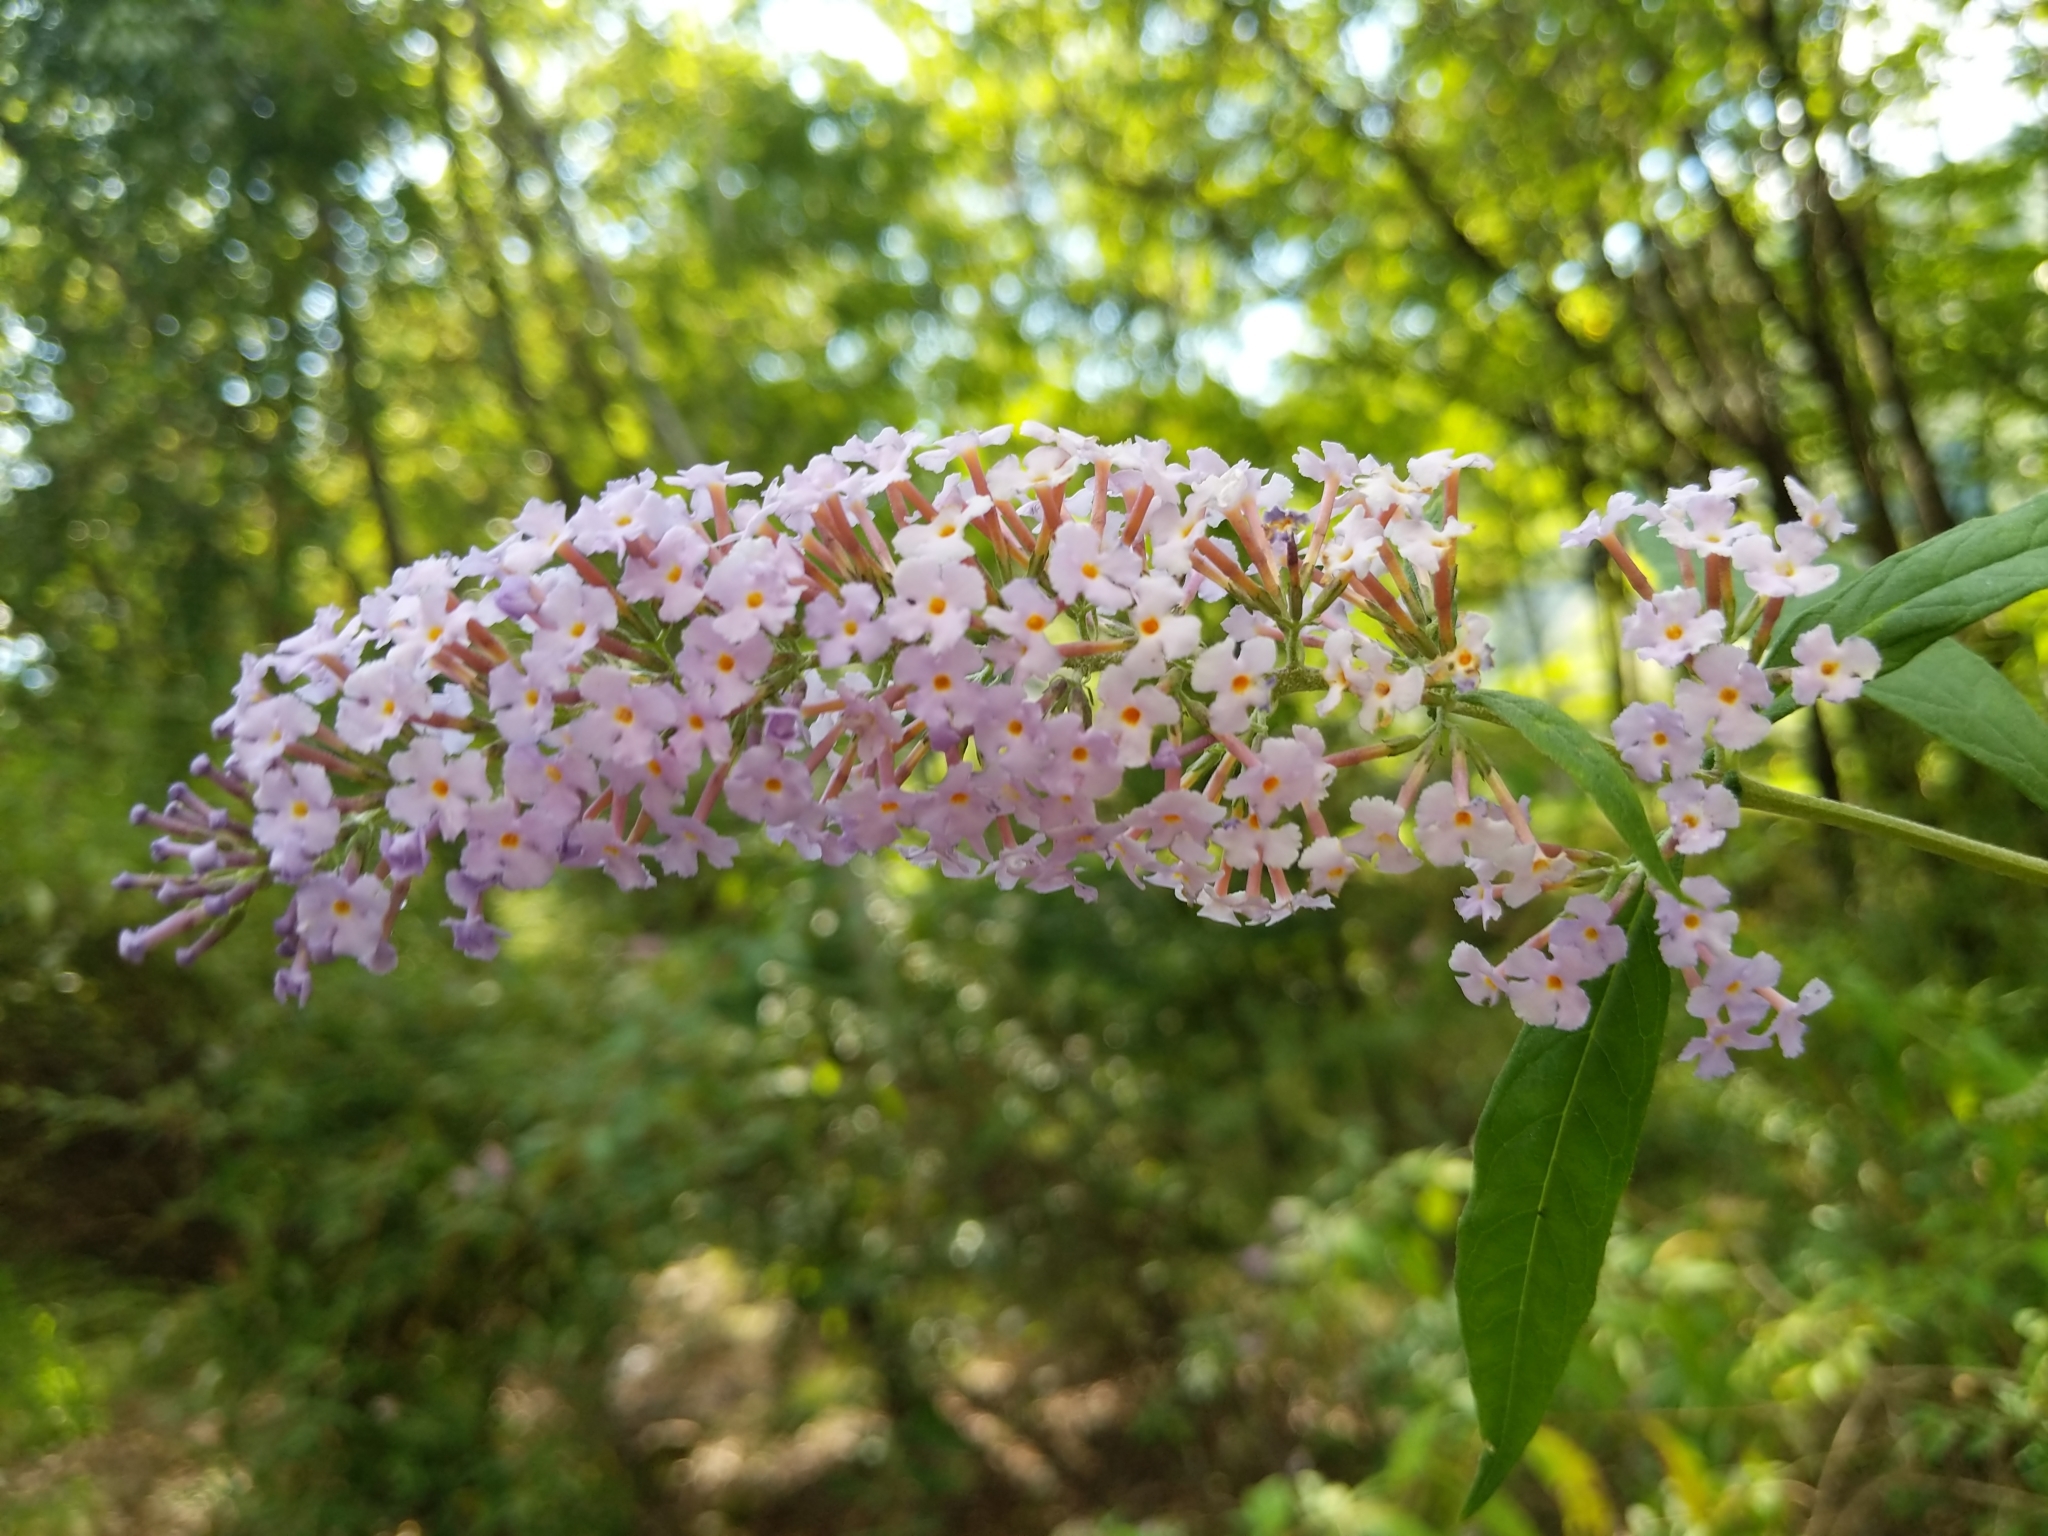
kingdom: Plantae
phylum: Tracheophyta
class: Magnoliopsida
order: Lamiales
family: Scrophulariaceae
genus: Buddleja
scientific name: Buddleja davidii
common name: Butterfly-bush
